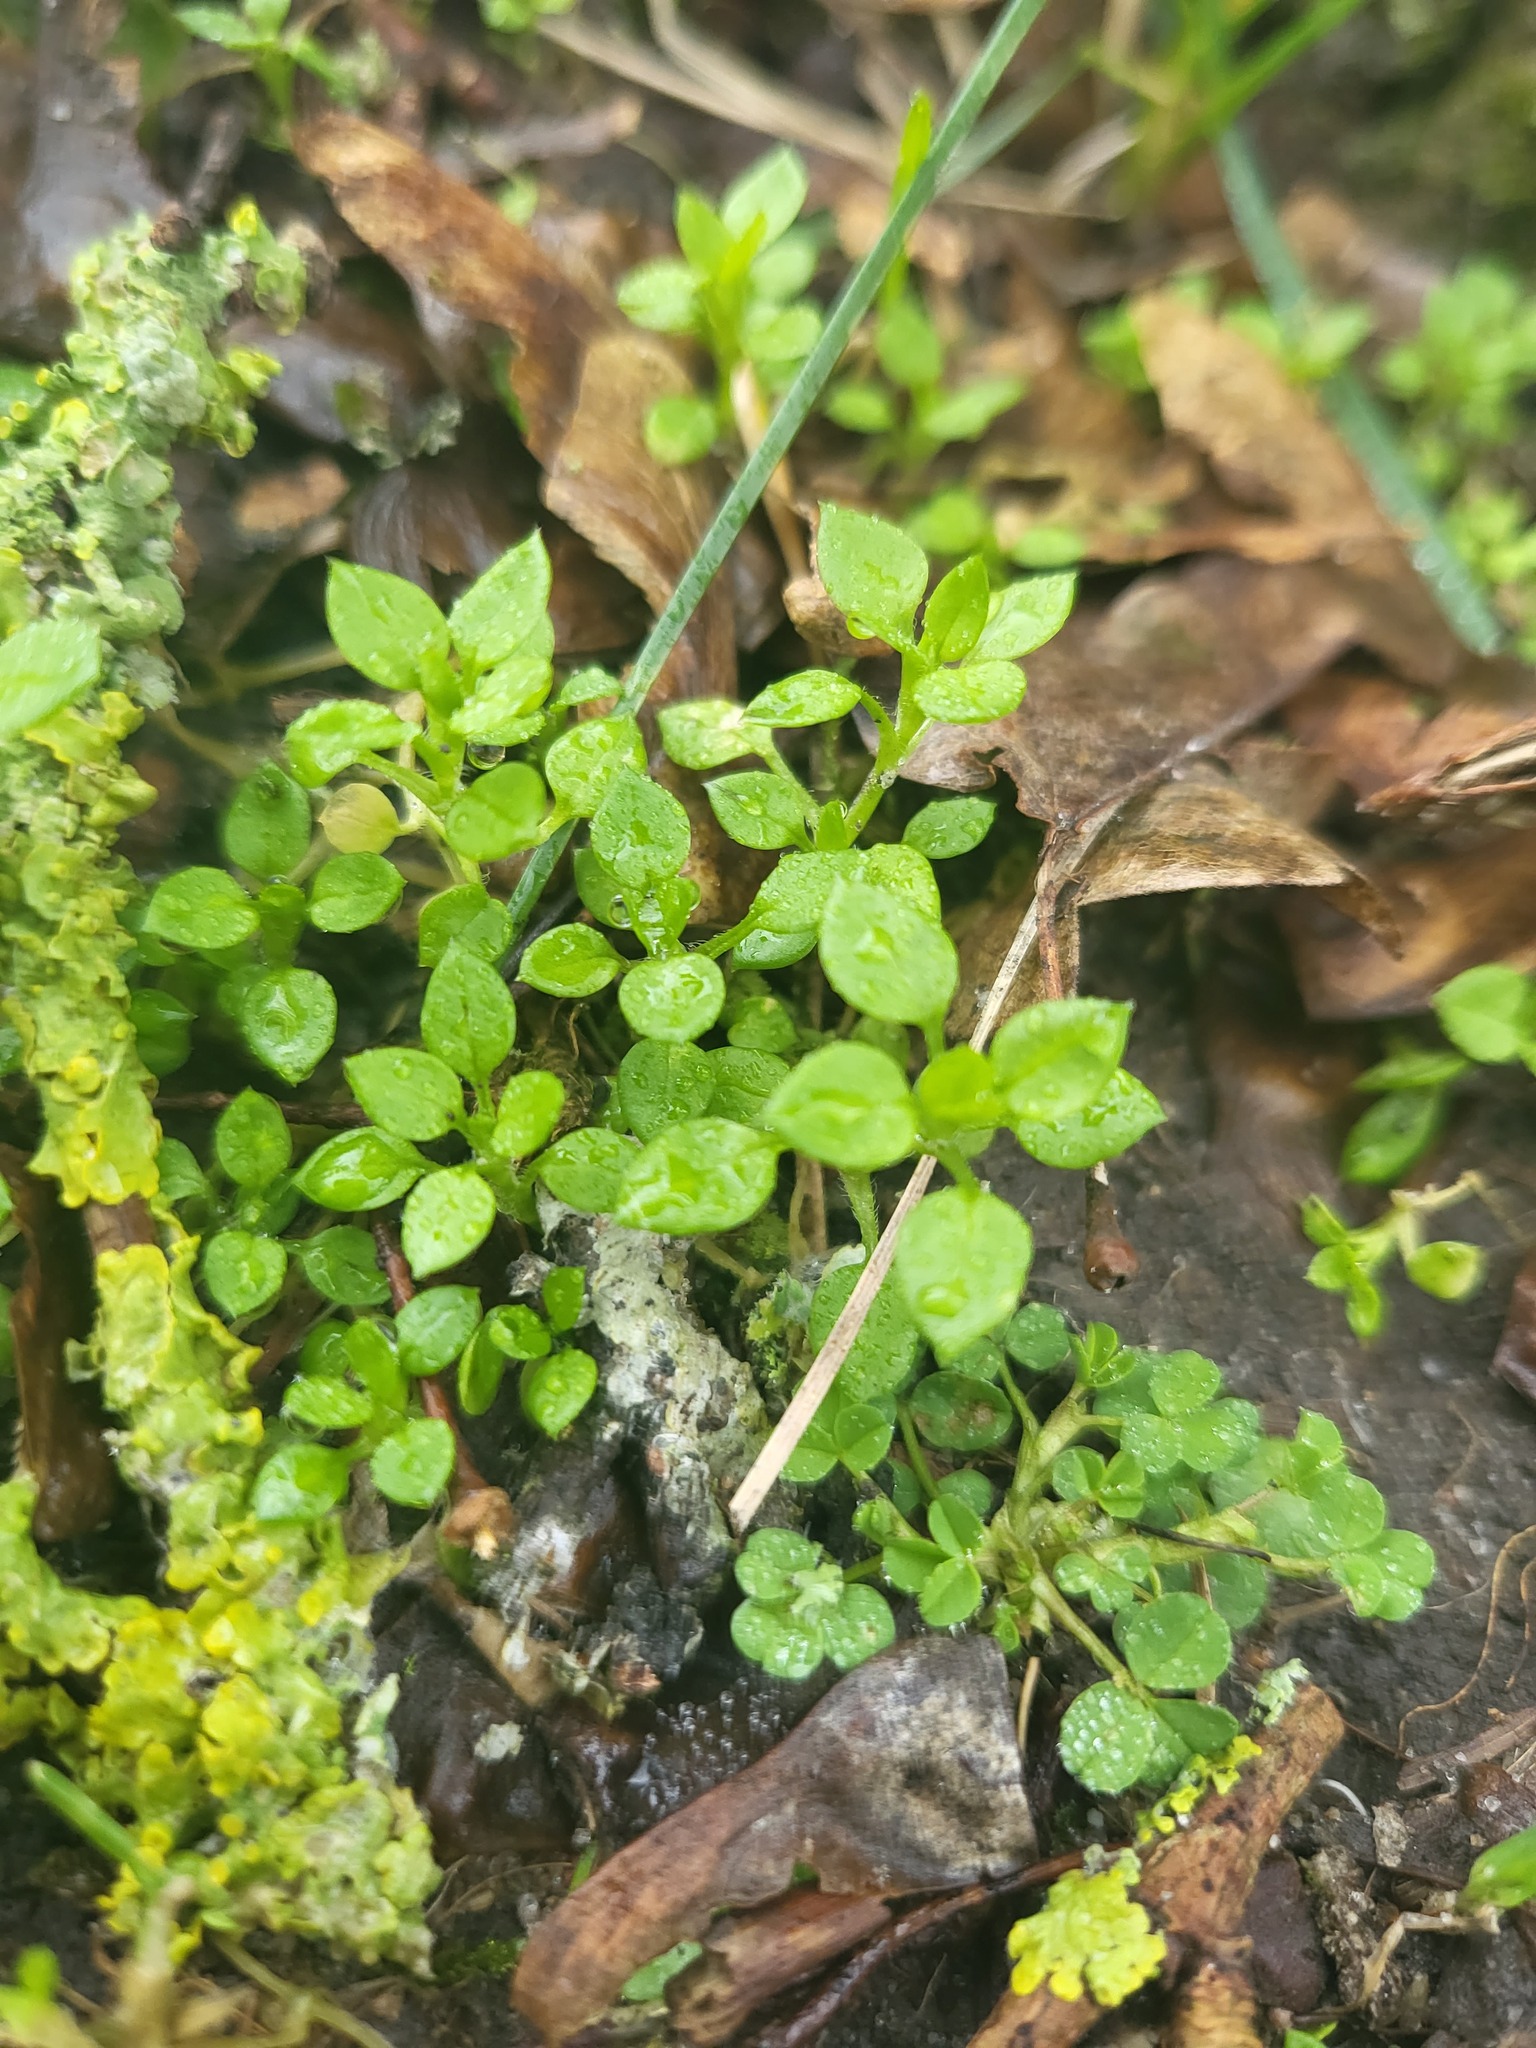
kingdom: Plantae
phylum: Tracheophyta
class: Magnoliopsida
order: Caryophyllales
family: Caryophyllaceae
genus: Stellaria
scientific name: Stellaria media
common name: Common chickweed
